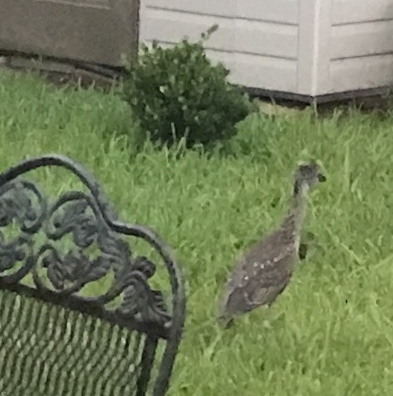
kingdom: Animalia
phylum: Chordata
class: Aves
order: Pelecaniformes
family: Ardeidae
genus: Nyctanassa
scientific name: Nyctanassa violacea
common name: Yellow-crowned night heron
